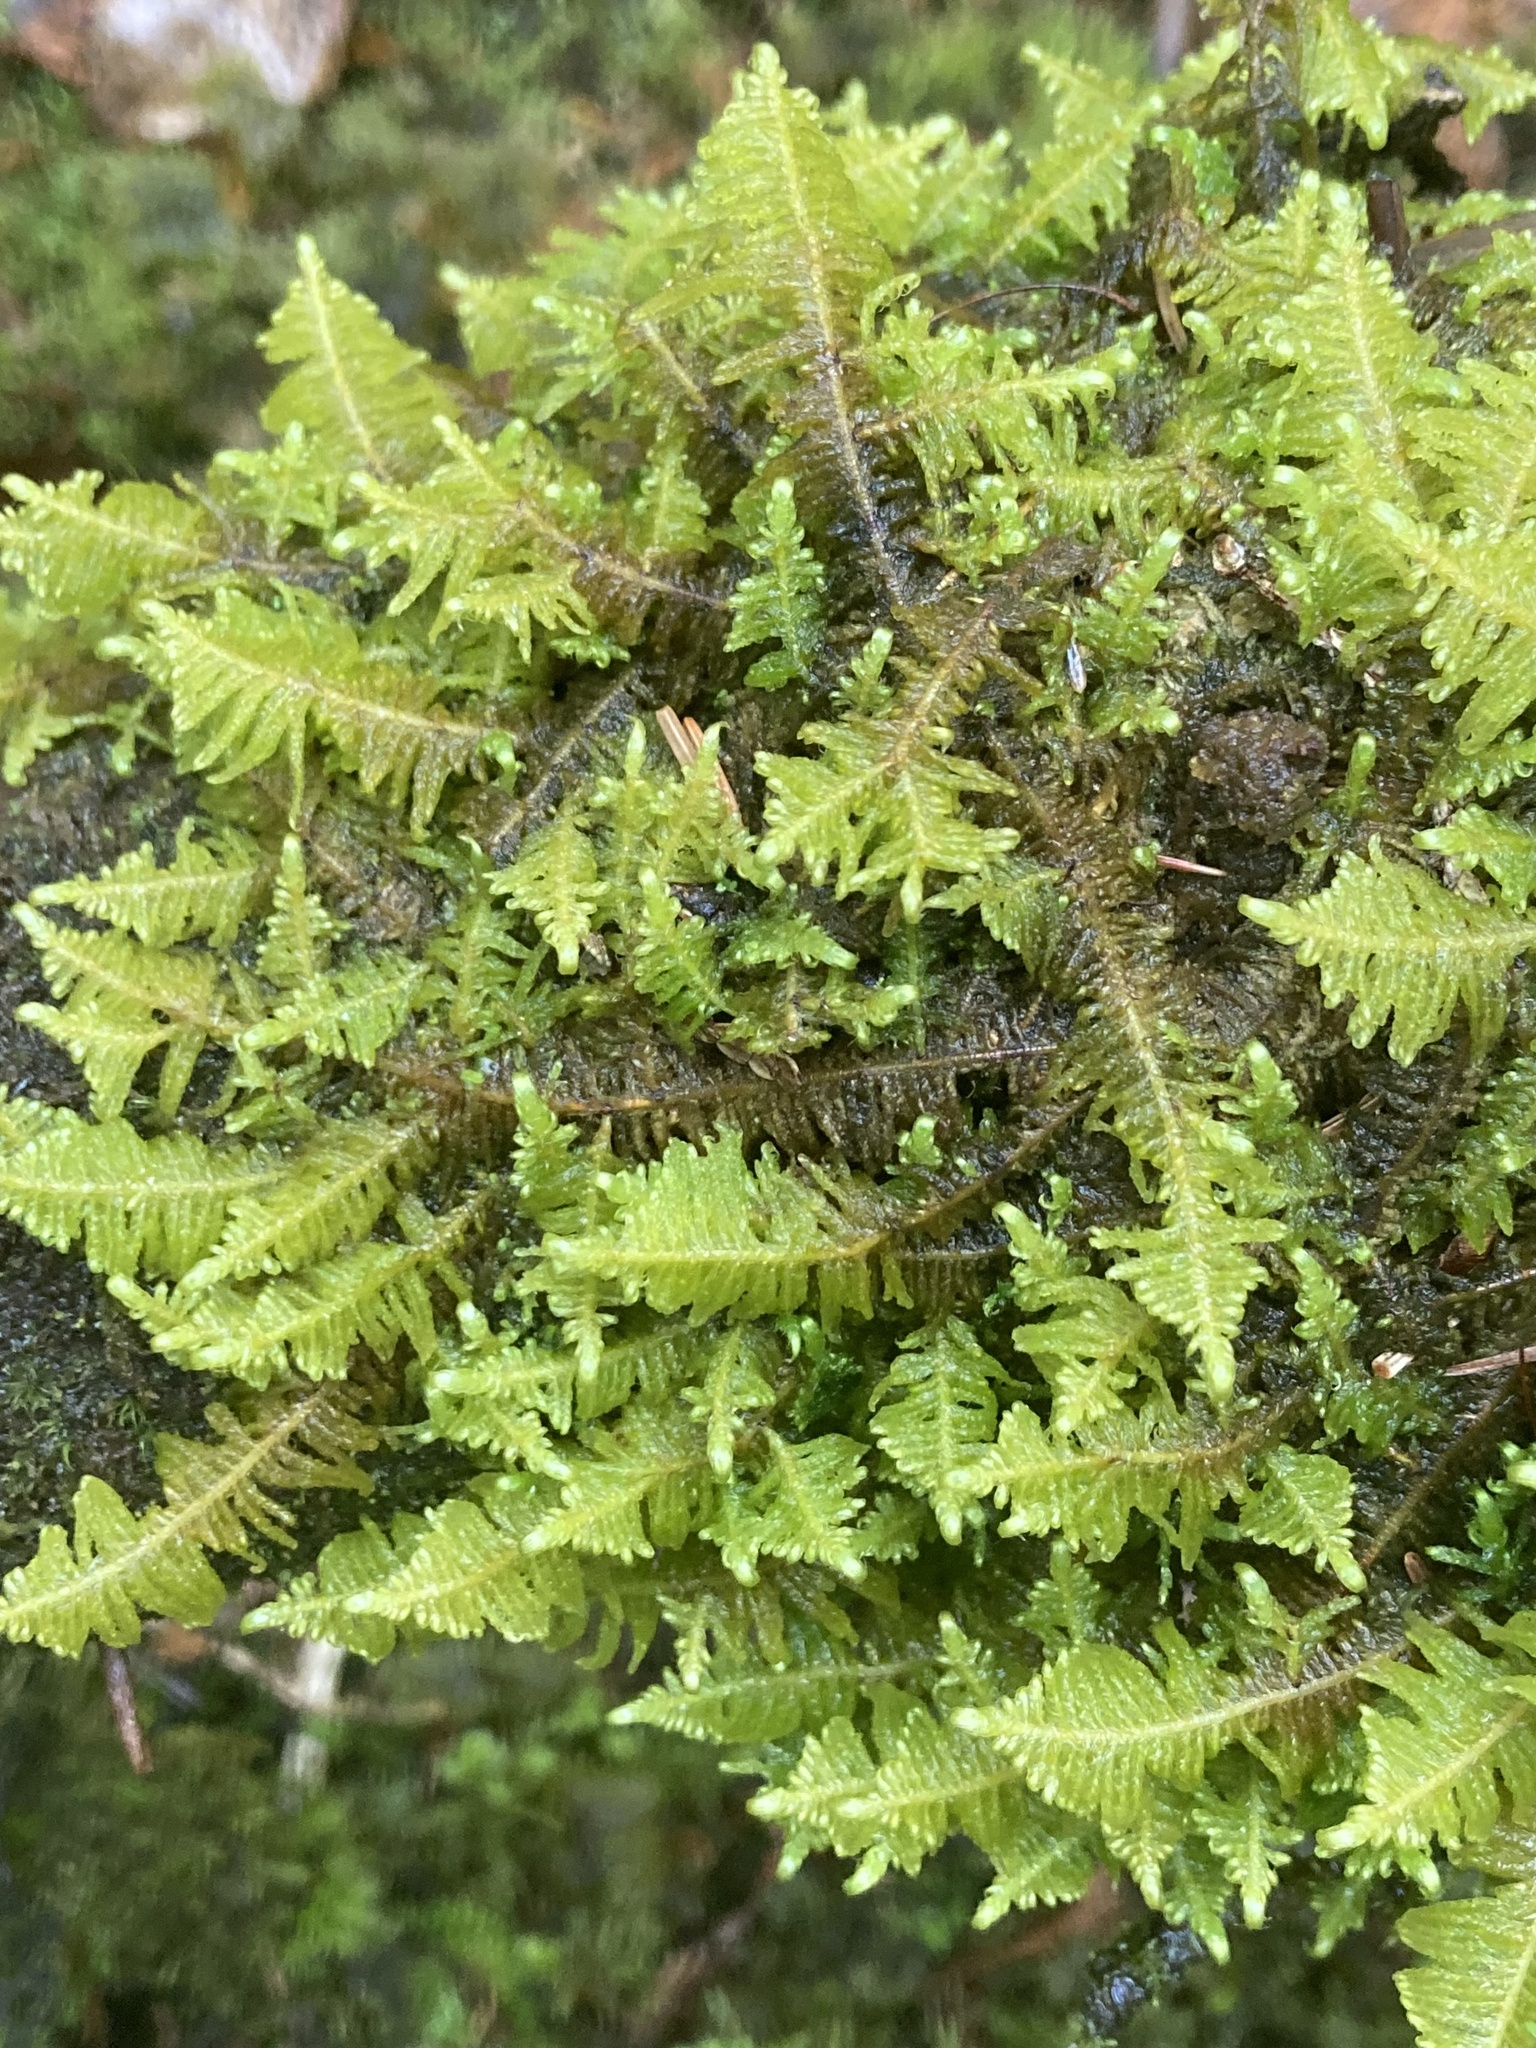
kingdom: Plantae
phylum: Bryophyta
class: Bryopsida
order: Hypnales
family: Pylaisiaceae
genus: Ptilium
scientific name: Ptilium crista-castrensis
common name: Knight's plume moss
